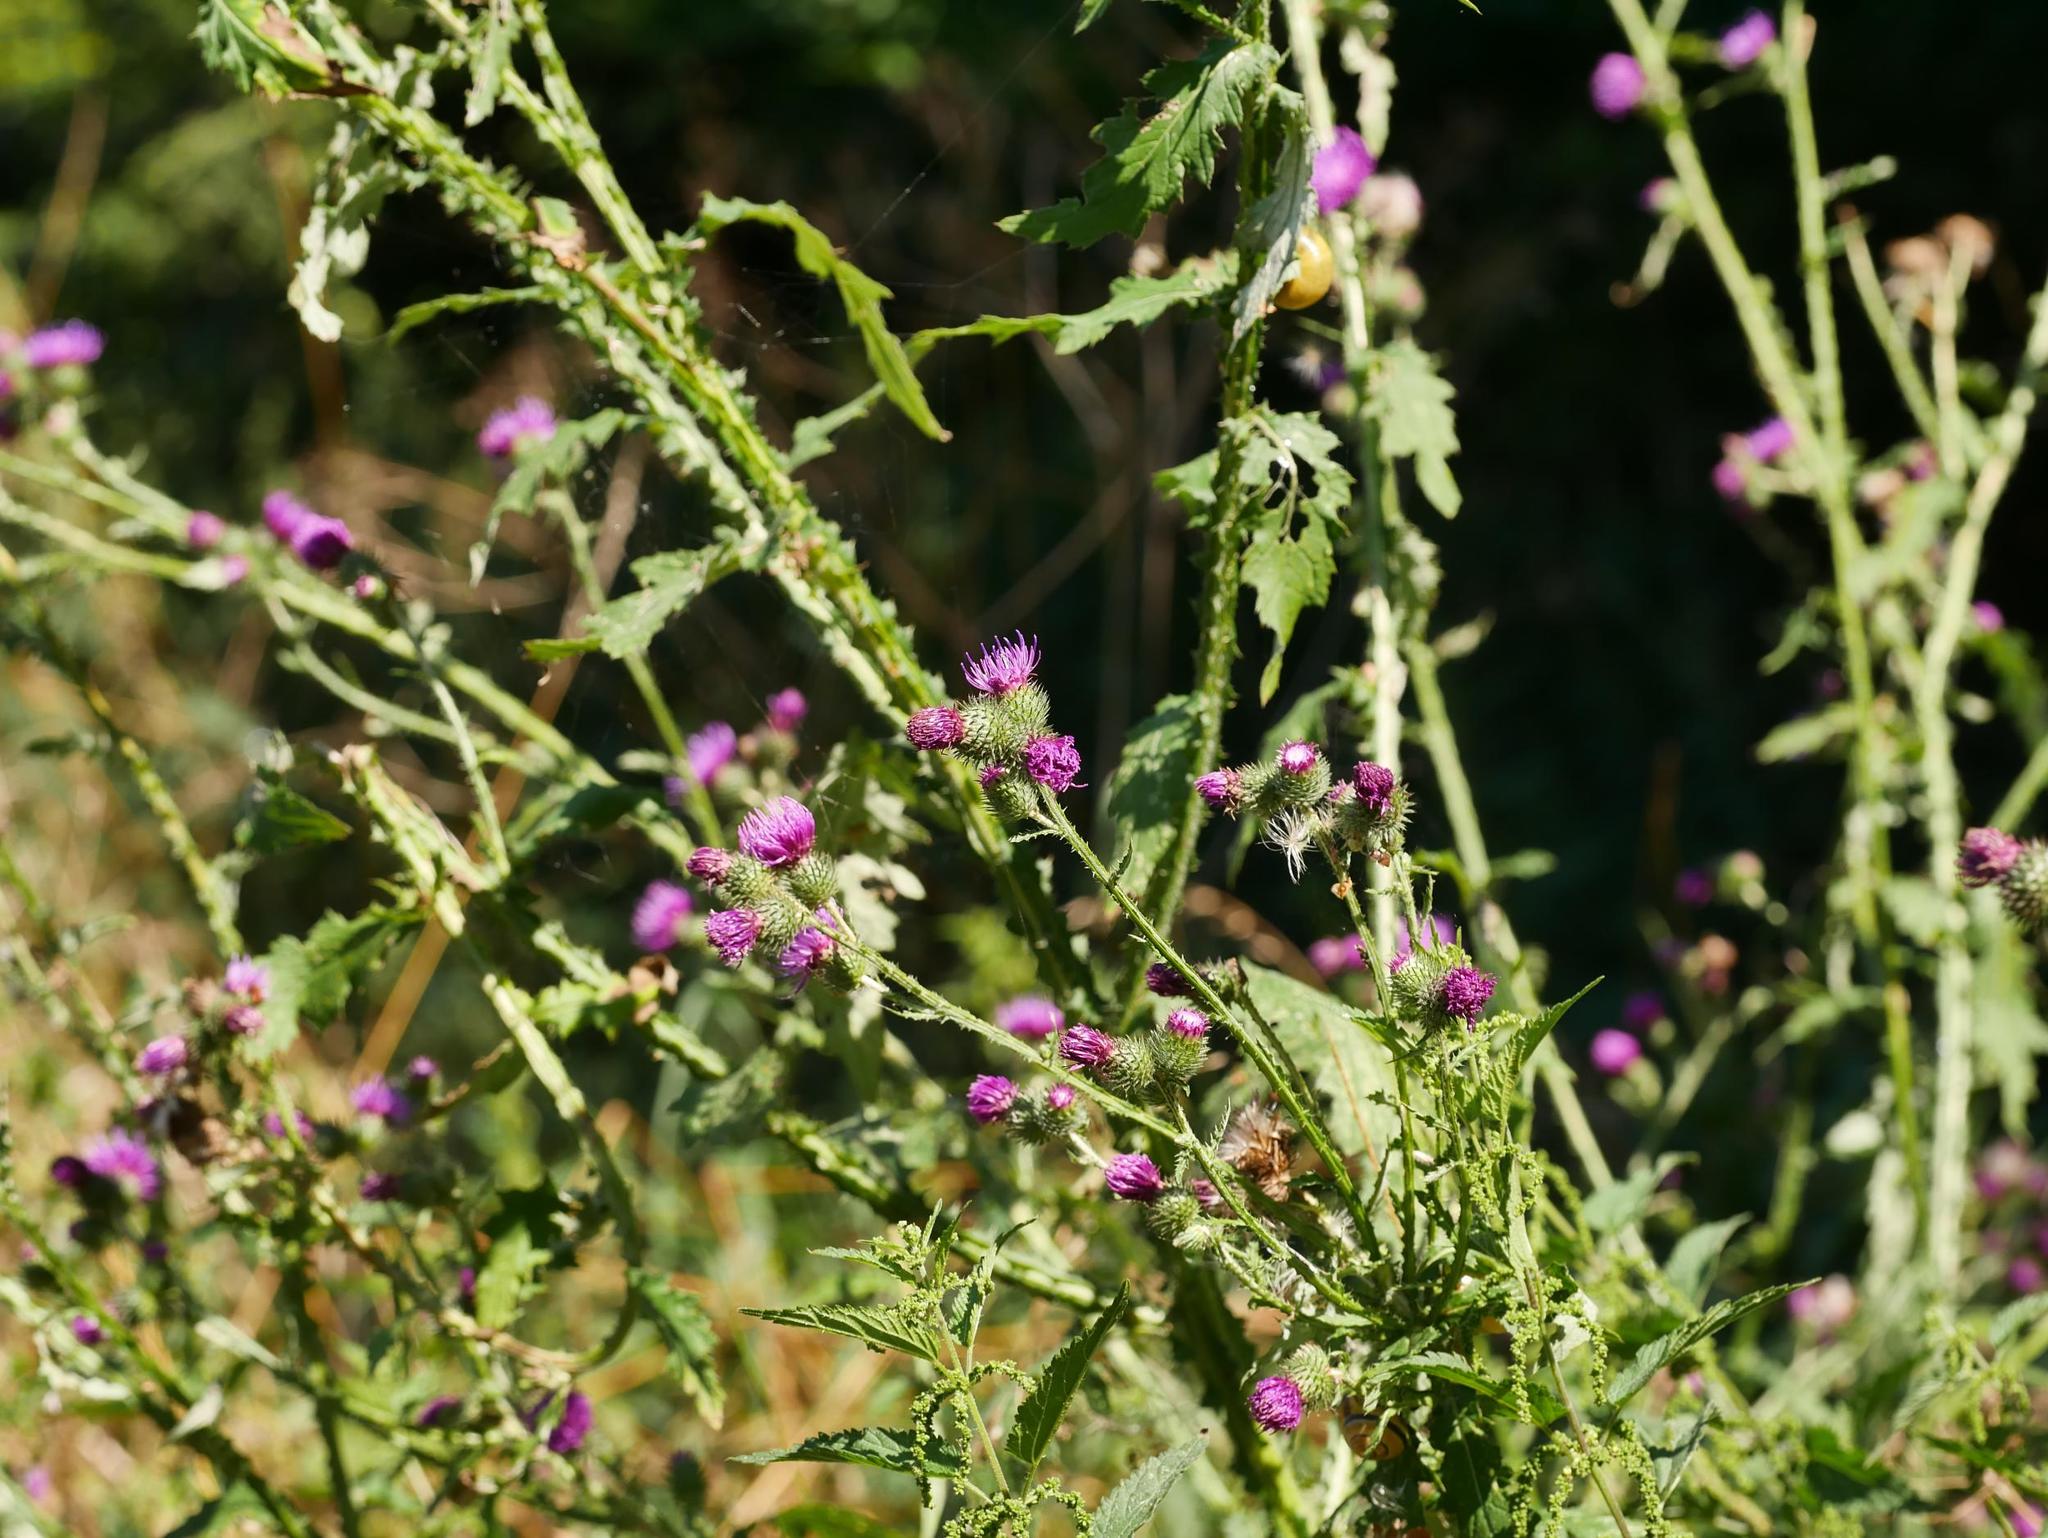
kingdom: Plantae
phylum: Tracheophyta
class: Magnoliopsida
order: Asterales
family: Asteraceae
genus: Carduus
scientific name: Carduus crispus
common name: Welted thistle
